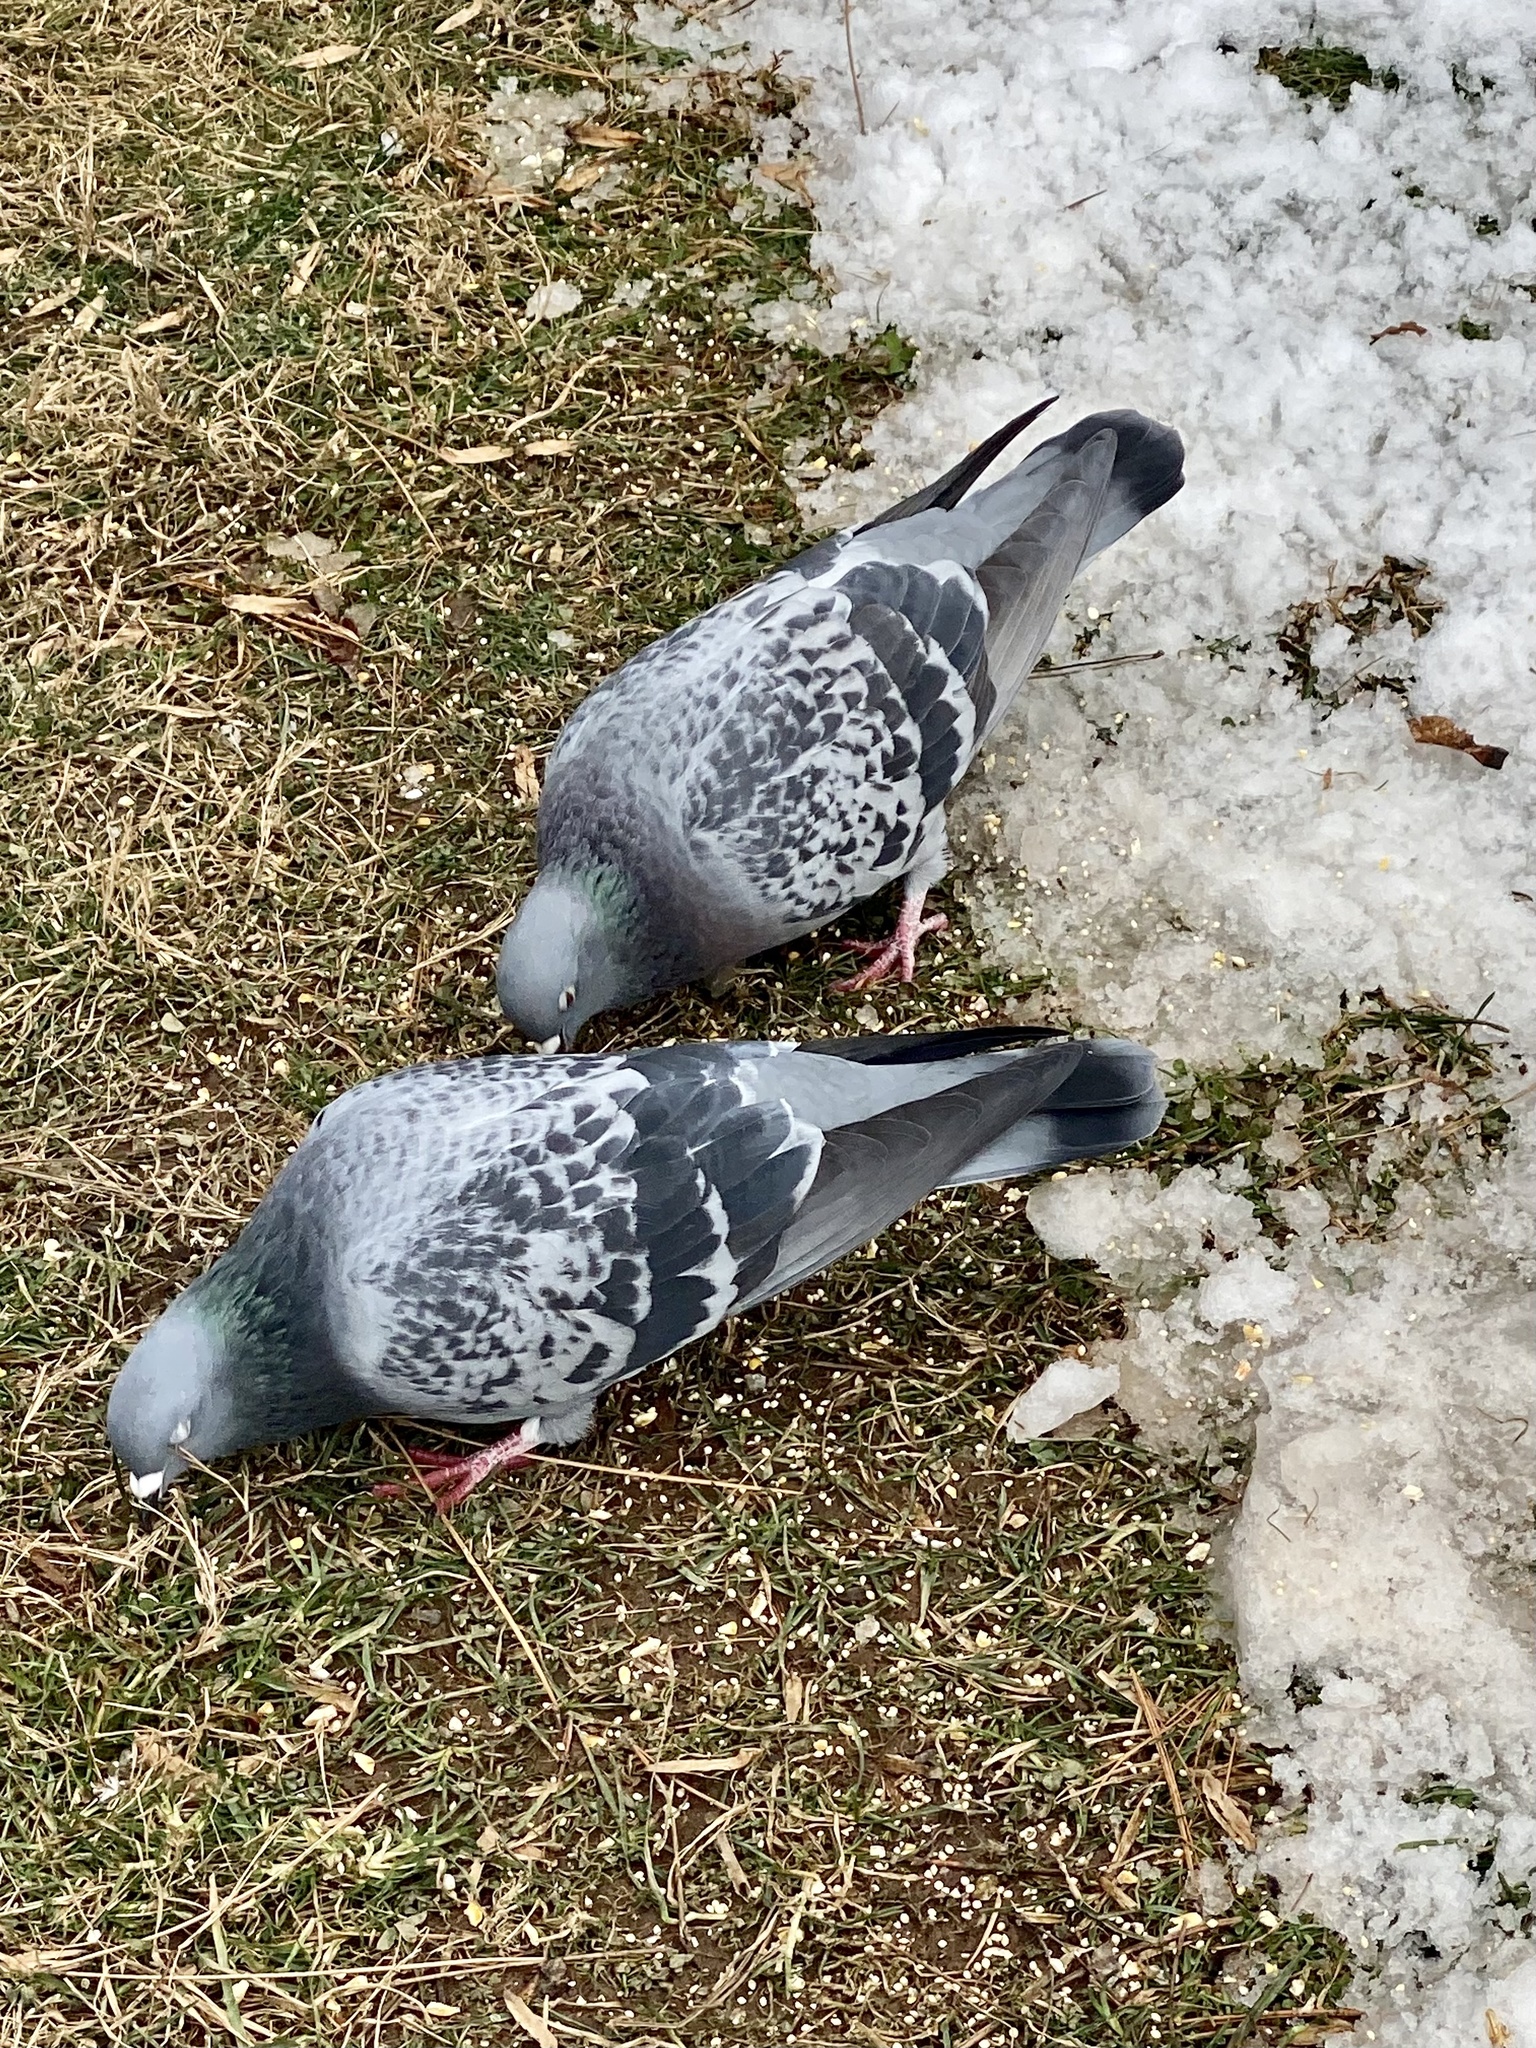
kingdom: Animalia
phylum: Chordata
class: Aves
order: Columbiformes
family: Columbidae
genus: Columba
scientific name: Columba livia
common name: Rock pigeon
